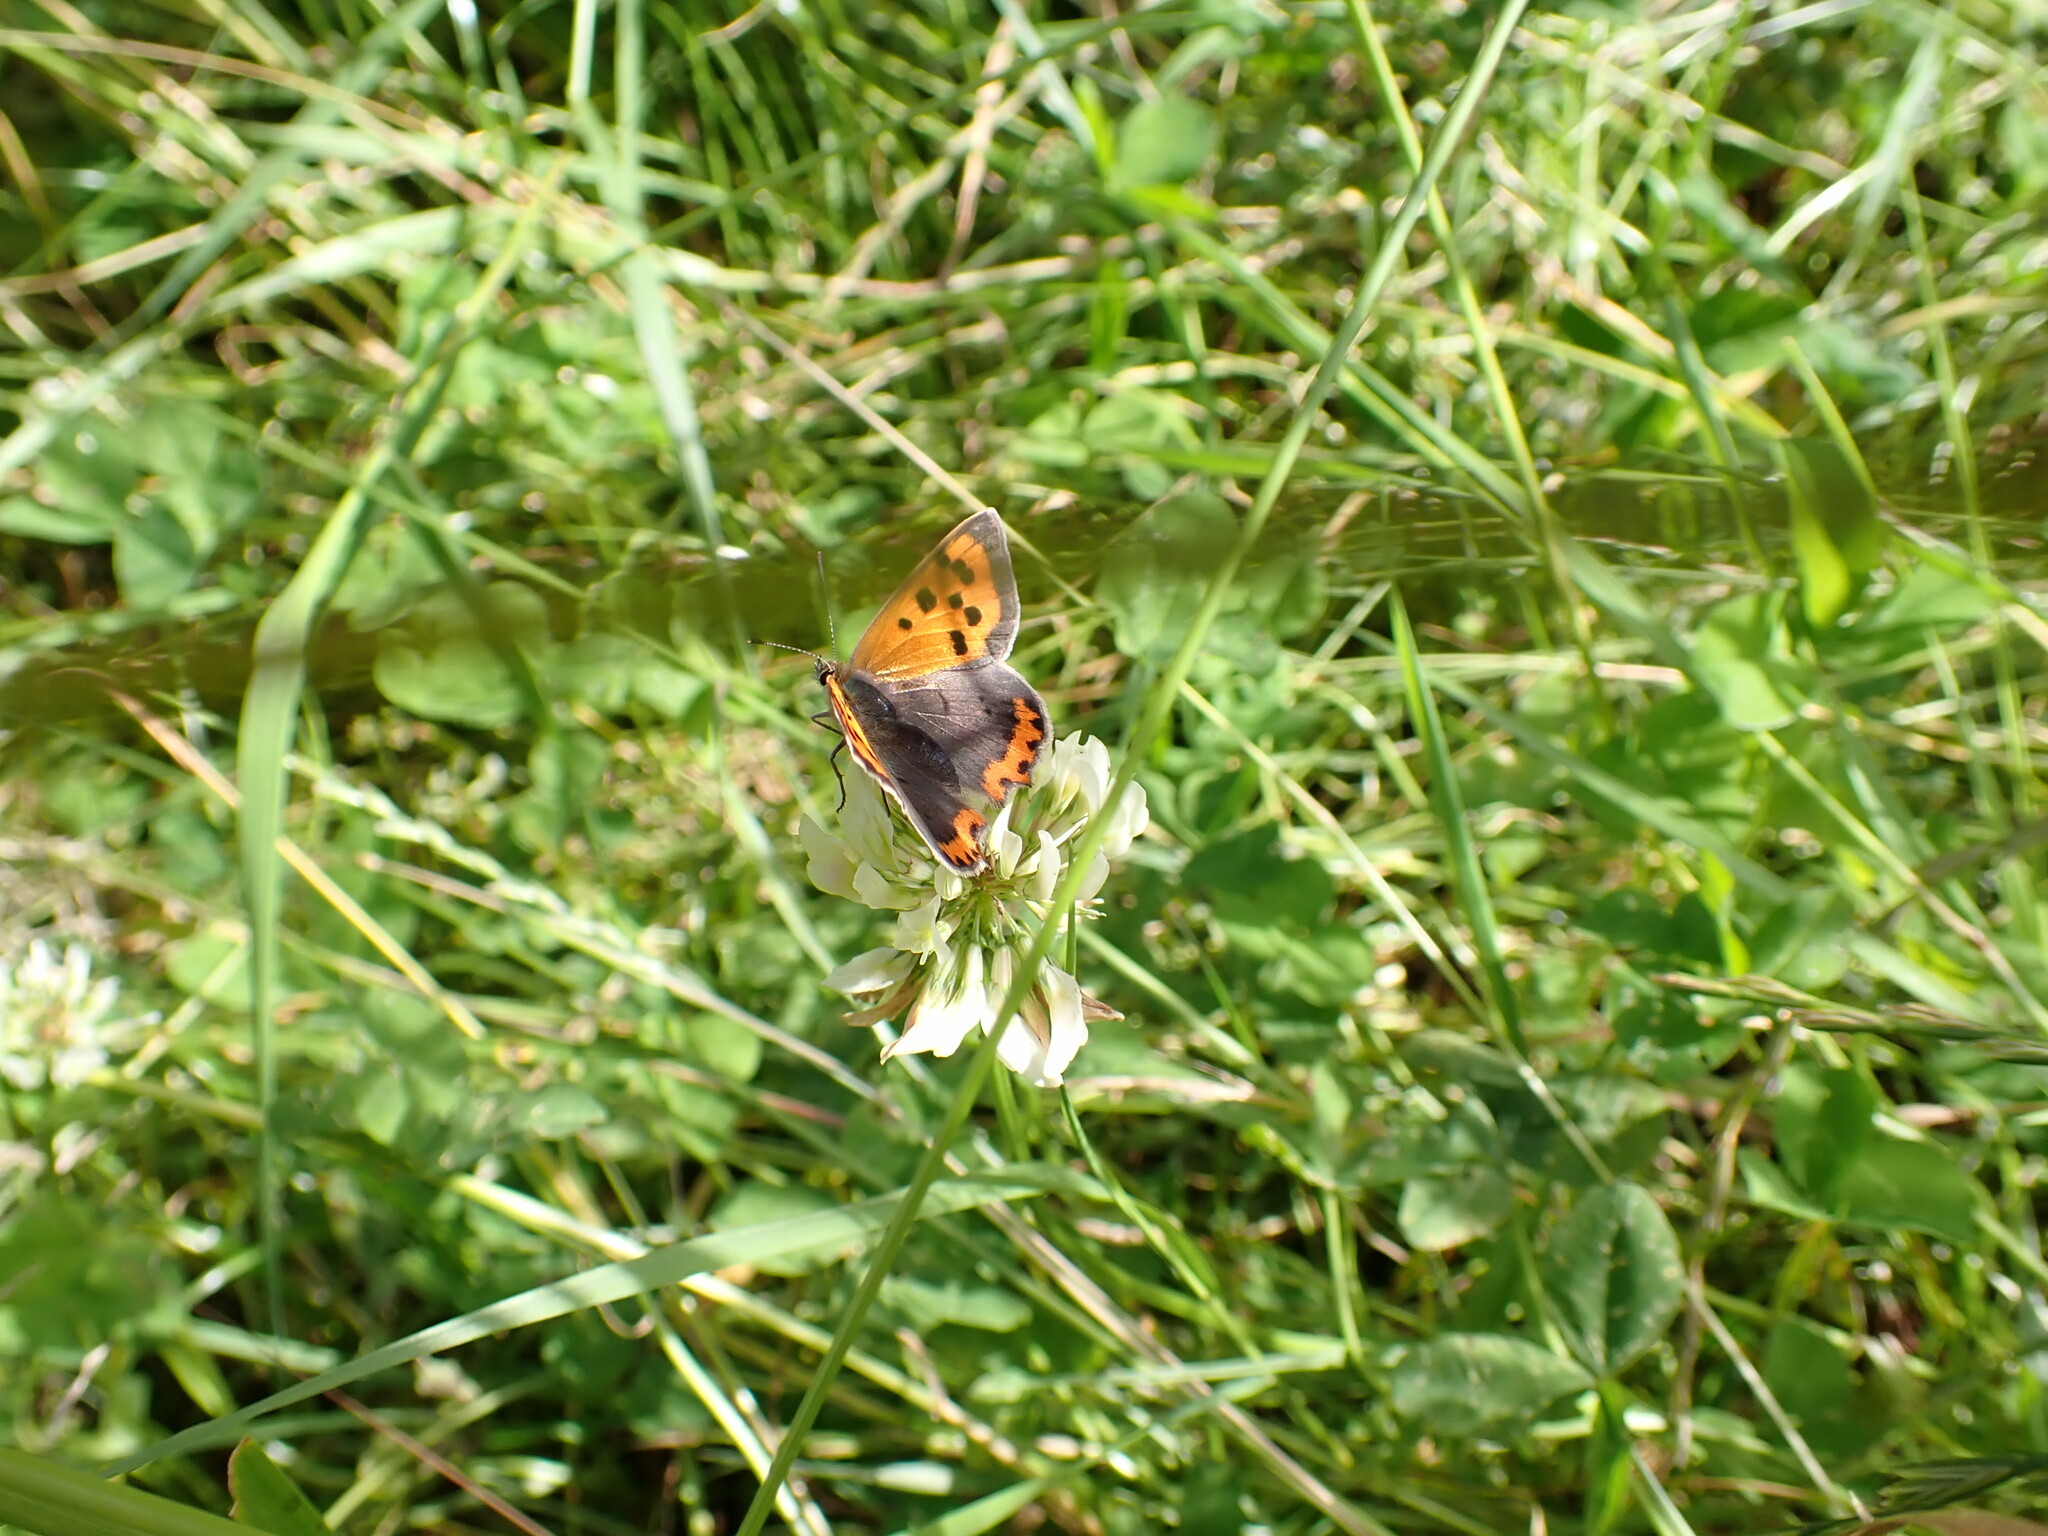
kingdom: Animalia
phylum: Arthropoda
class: Insecta
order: Lepidoptera
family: Lycaenidae
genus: Lycaena
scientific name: Lycaena phlaeas
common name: Small copper
